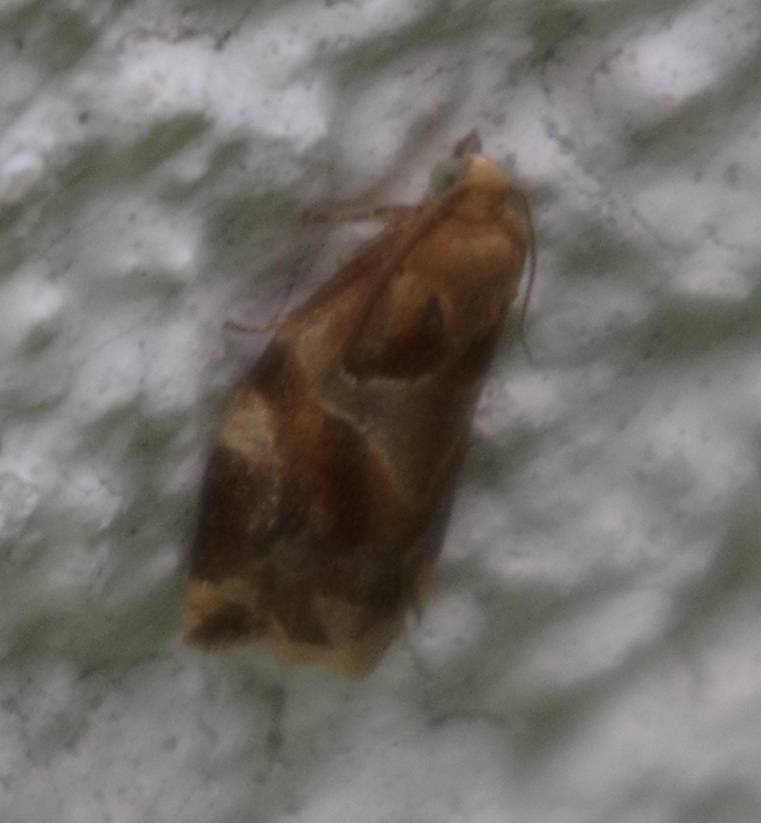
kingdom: Animalia
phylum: Arthropoda
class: Insecta
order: Lepidoptera
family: Tortricidae
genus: Archips
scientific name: Archips xylosteana
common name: Variegated golden tortrix
